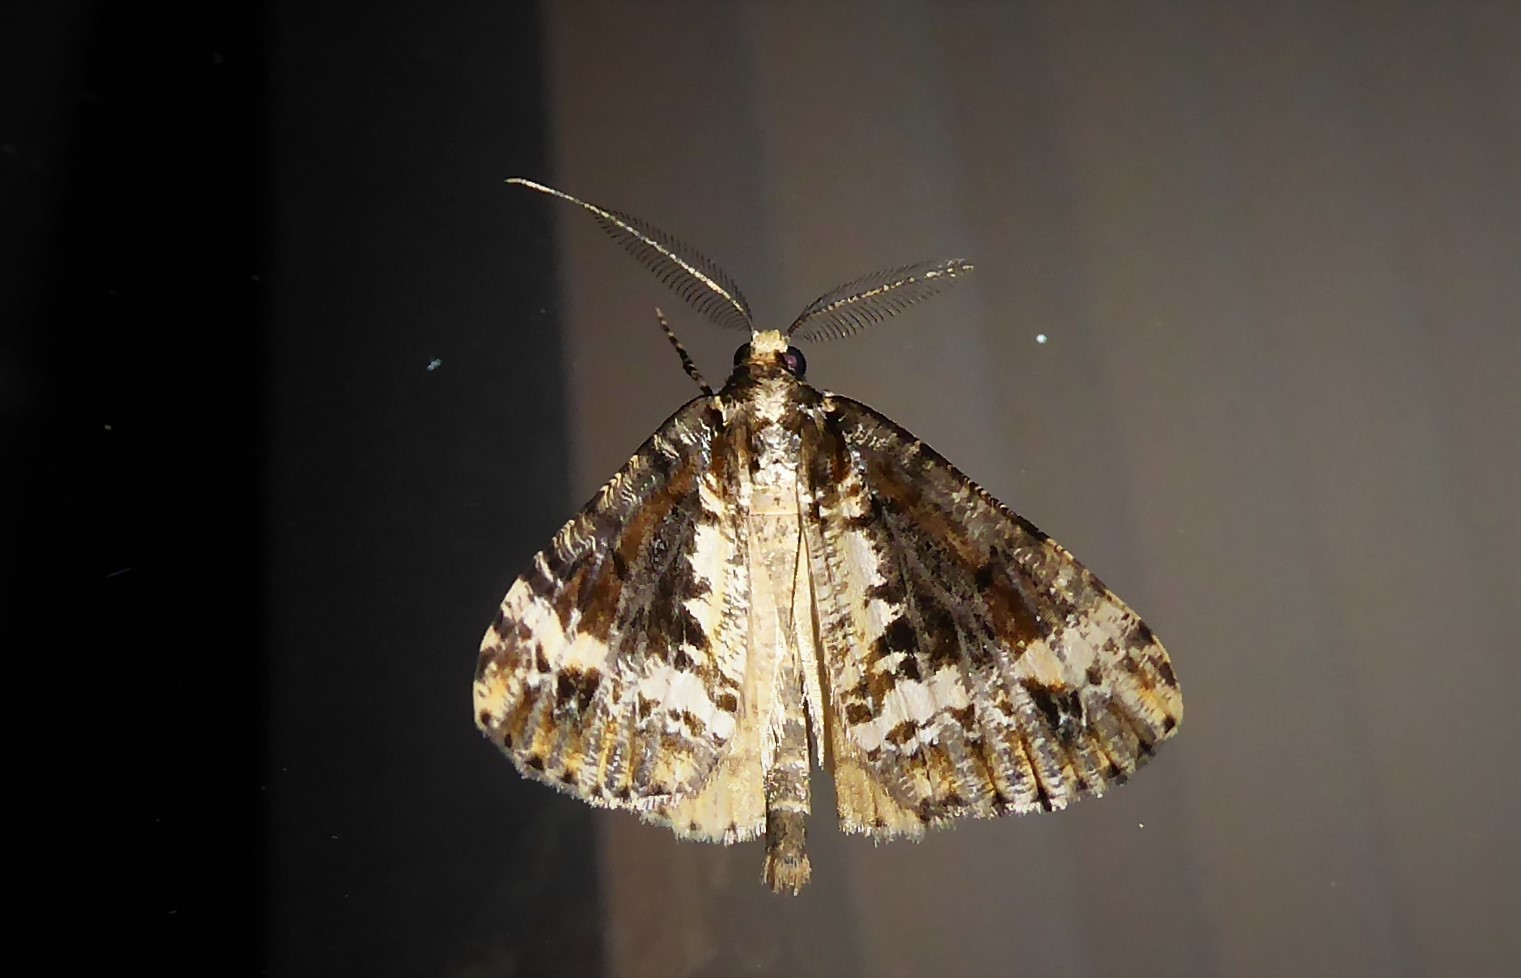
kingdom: Animalia
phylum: Arthropoda
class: Insecta
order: Lepidoptera
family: Geometridae
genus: Pseudocoremia
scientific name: Pseudocoremia leucelaea
